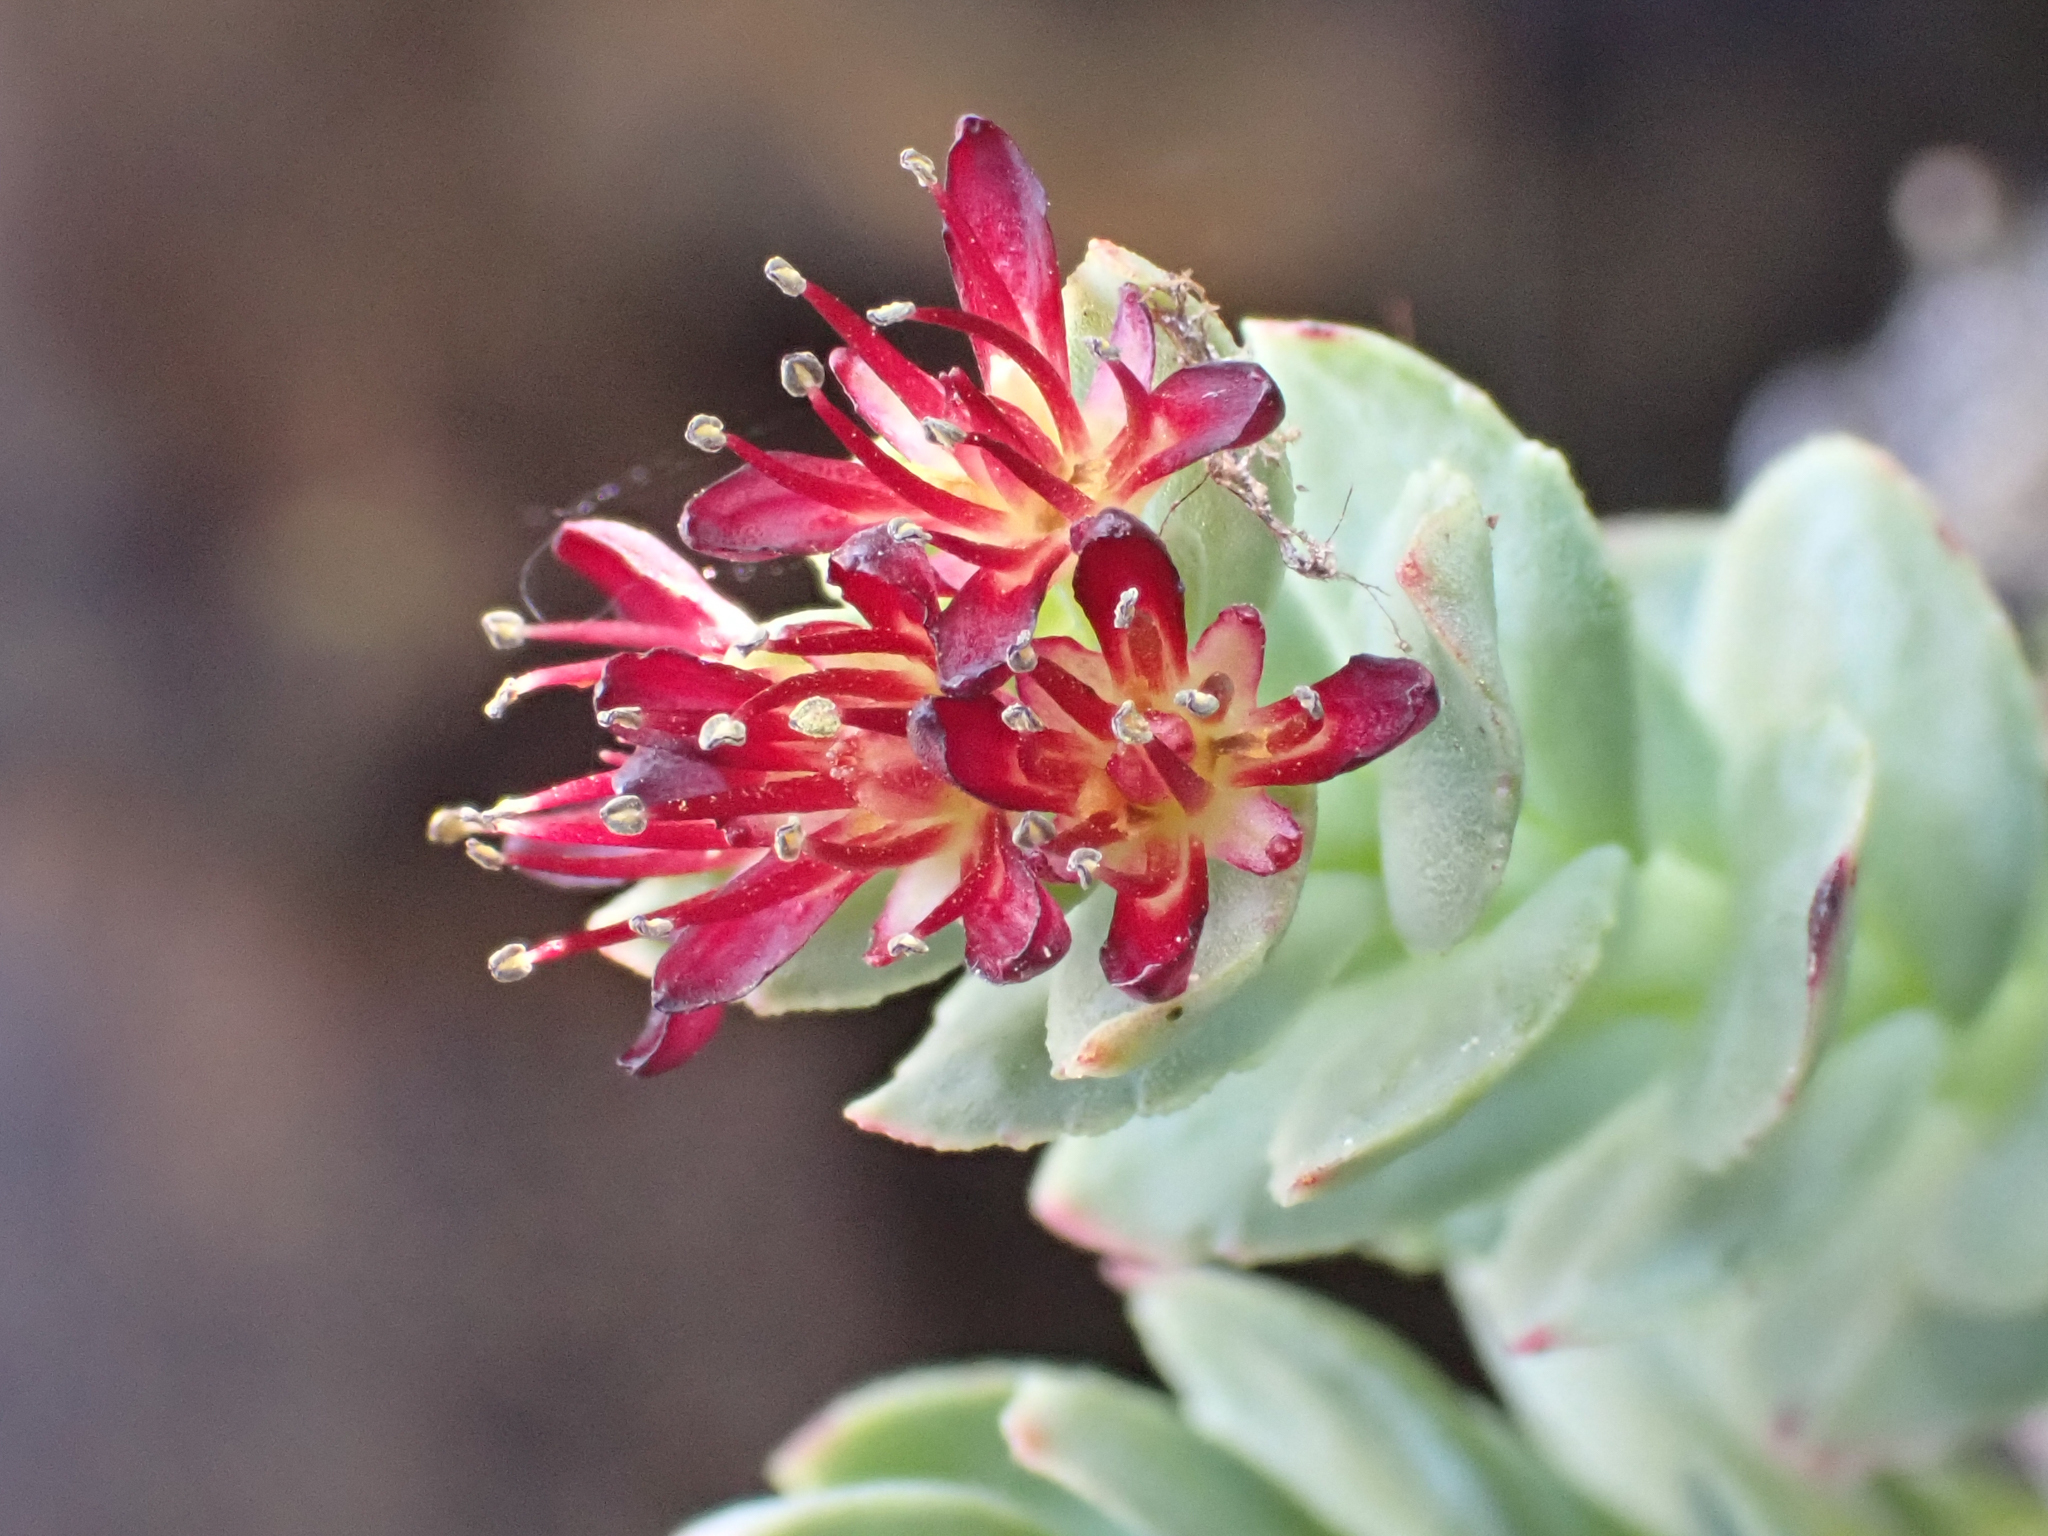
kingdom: Plantae
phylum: Tracheophyta
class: Magnoliopsida
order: Saxifragales
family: Crassulaceae
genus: Rhodiola
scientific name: Rhodiola integrifolia
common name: Western roseroot
